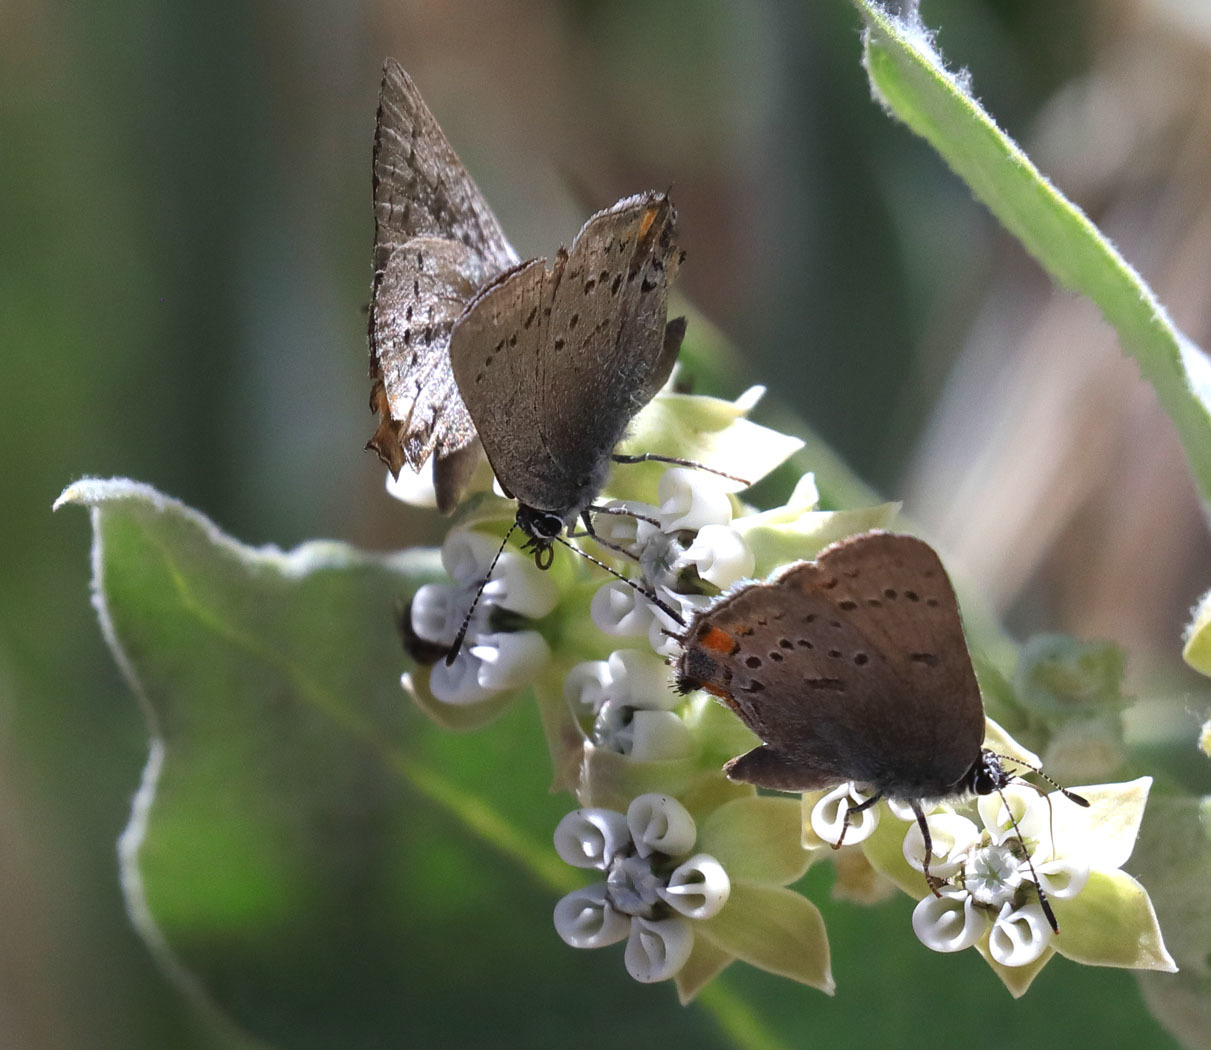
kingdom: Animalia
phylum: Arthropoda
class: Insecta
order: Lepidoptera
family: Lycaenidae
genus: Strymon
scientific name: Strymon acadica
